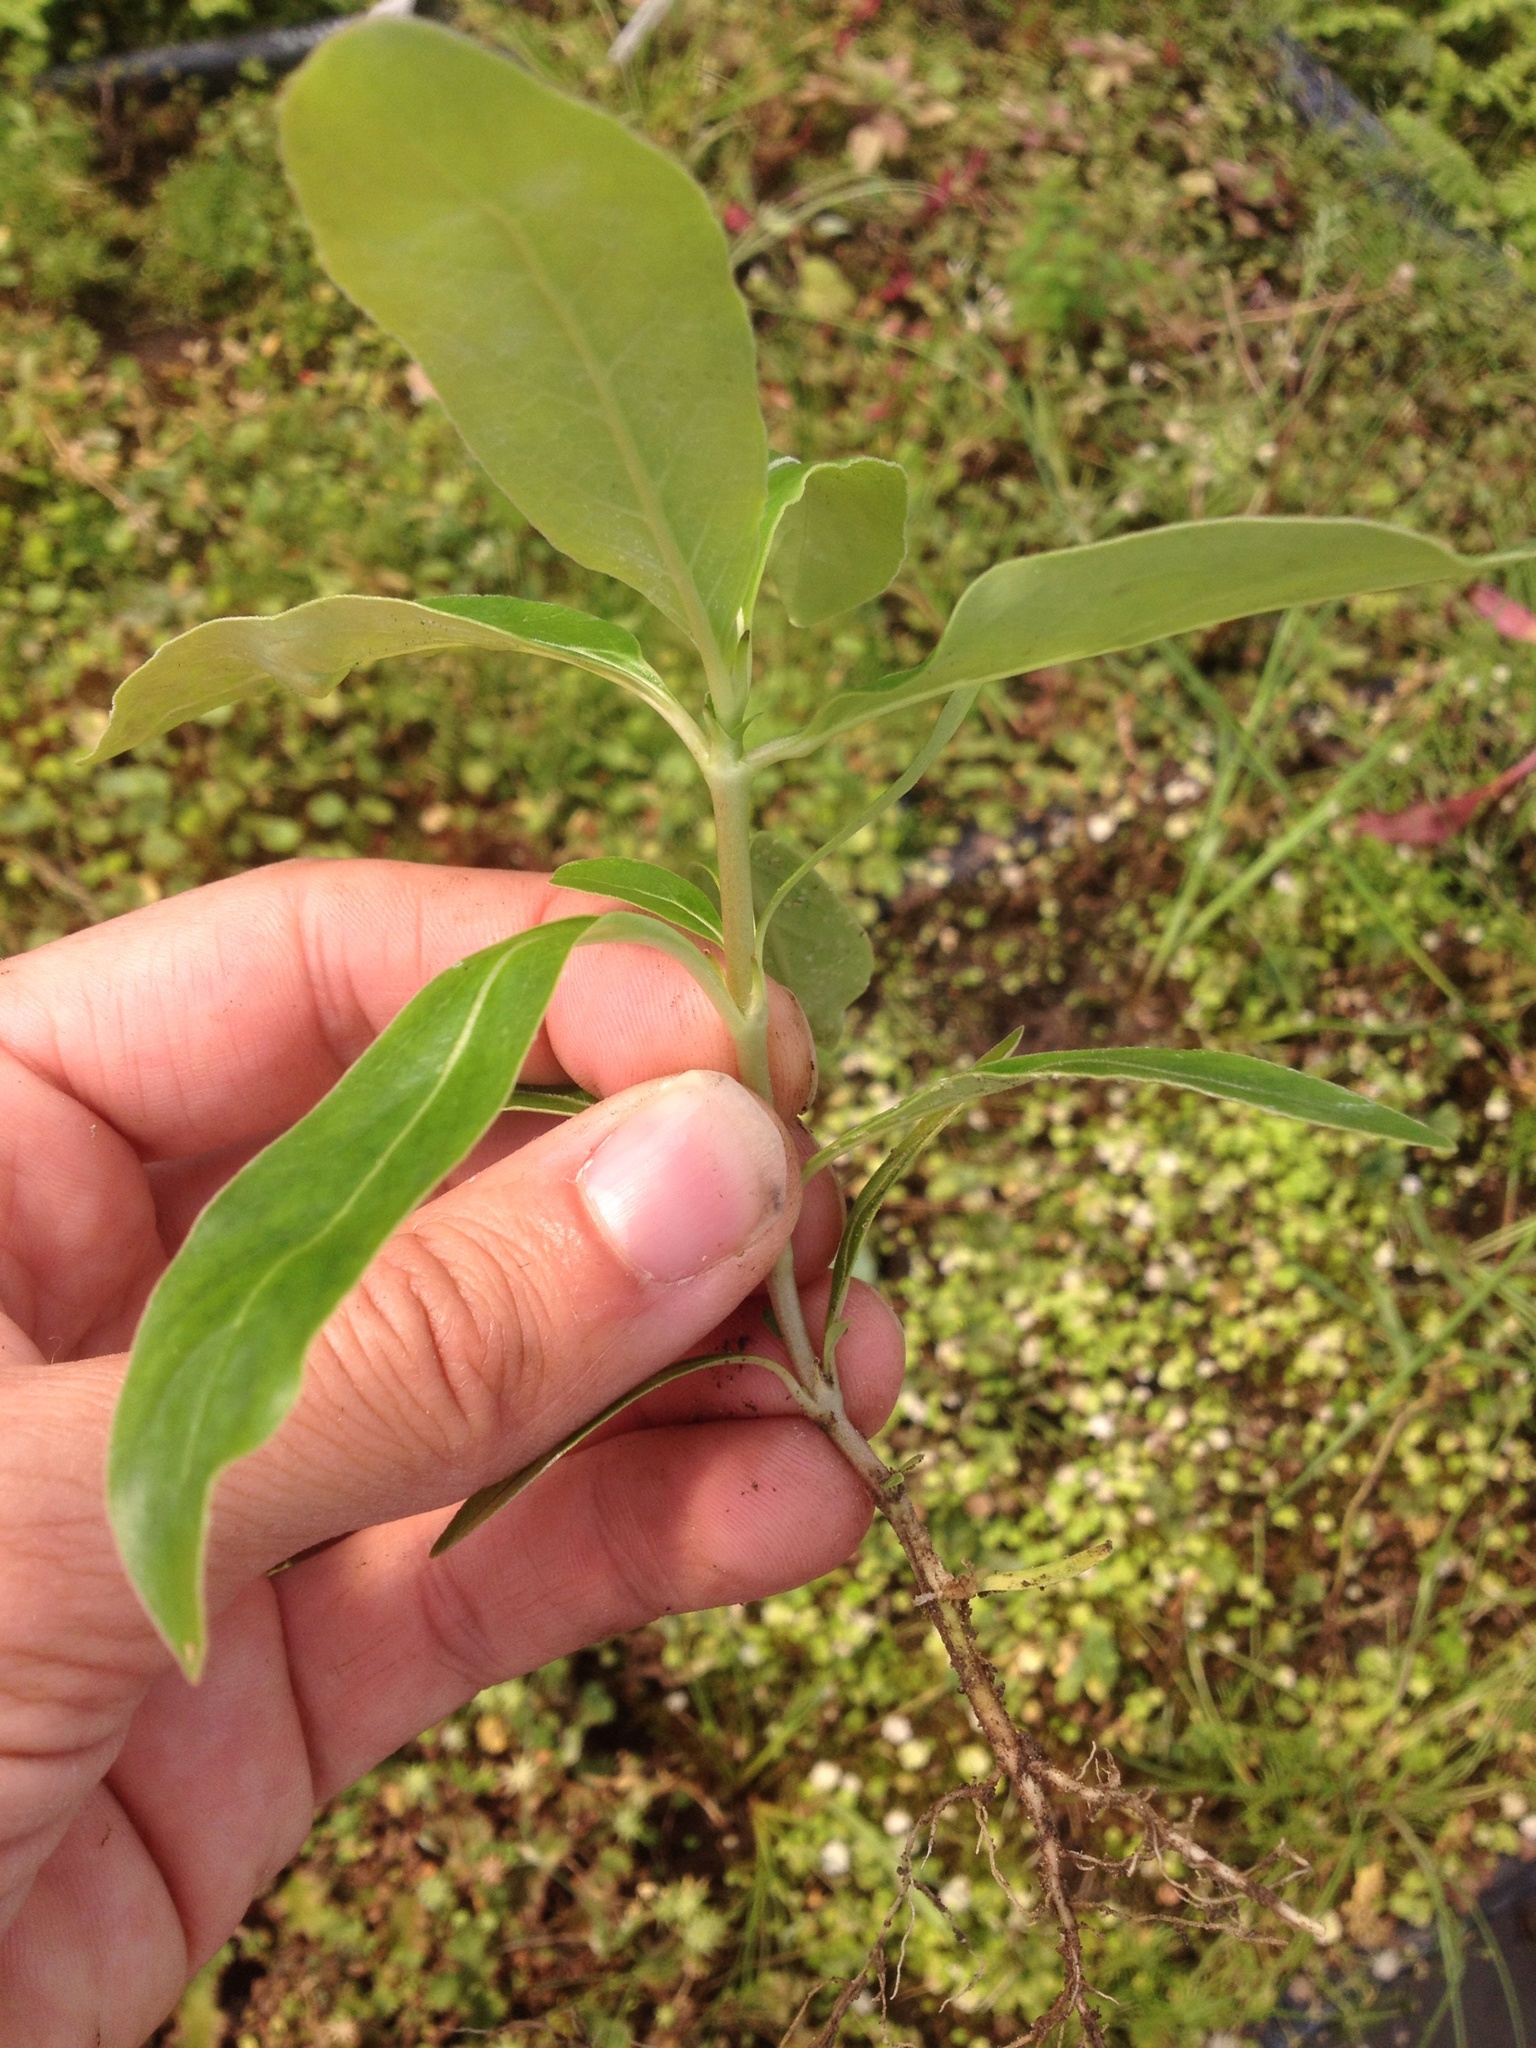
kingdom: Plantae
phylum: Tracheophyta
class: Magnoliopsida
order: Gentianales
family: Rubiaceae
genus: Coprosma
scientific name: Coprosma robusta
